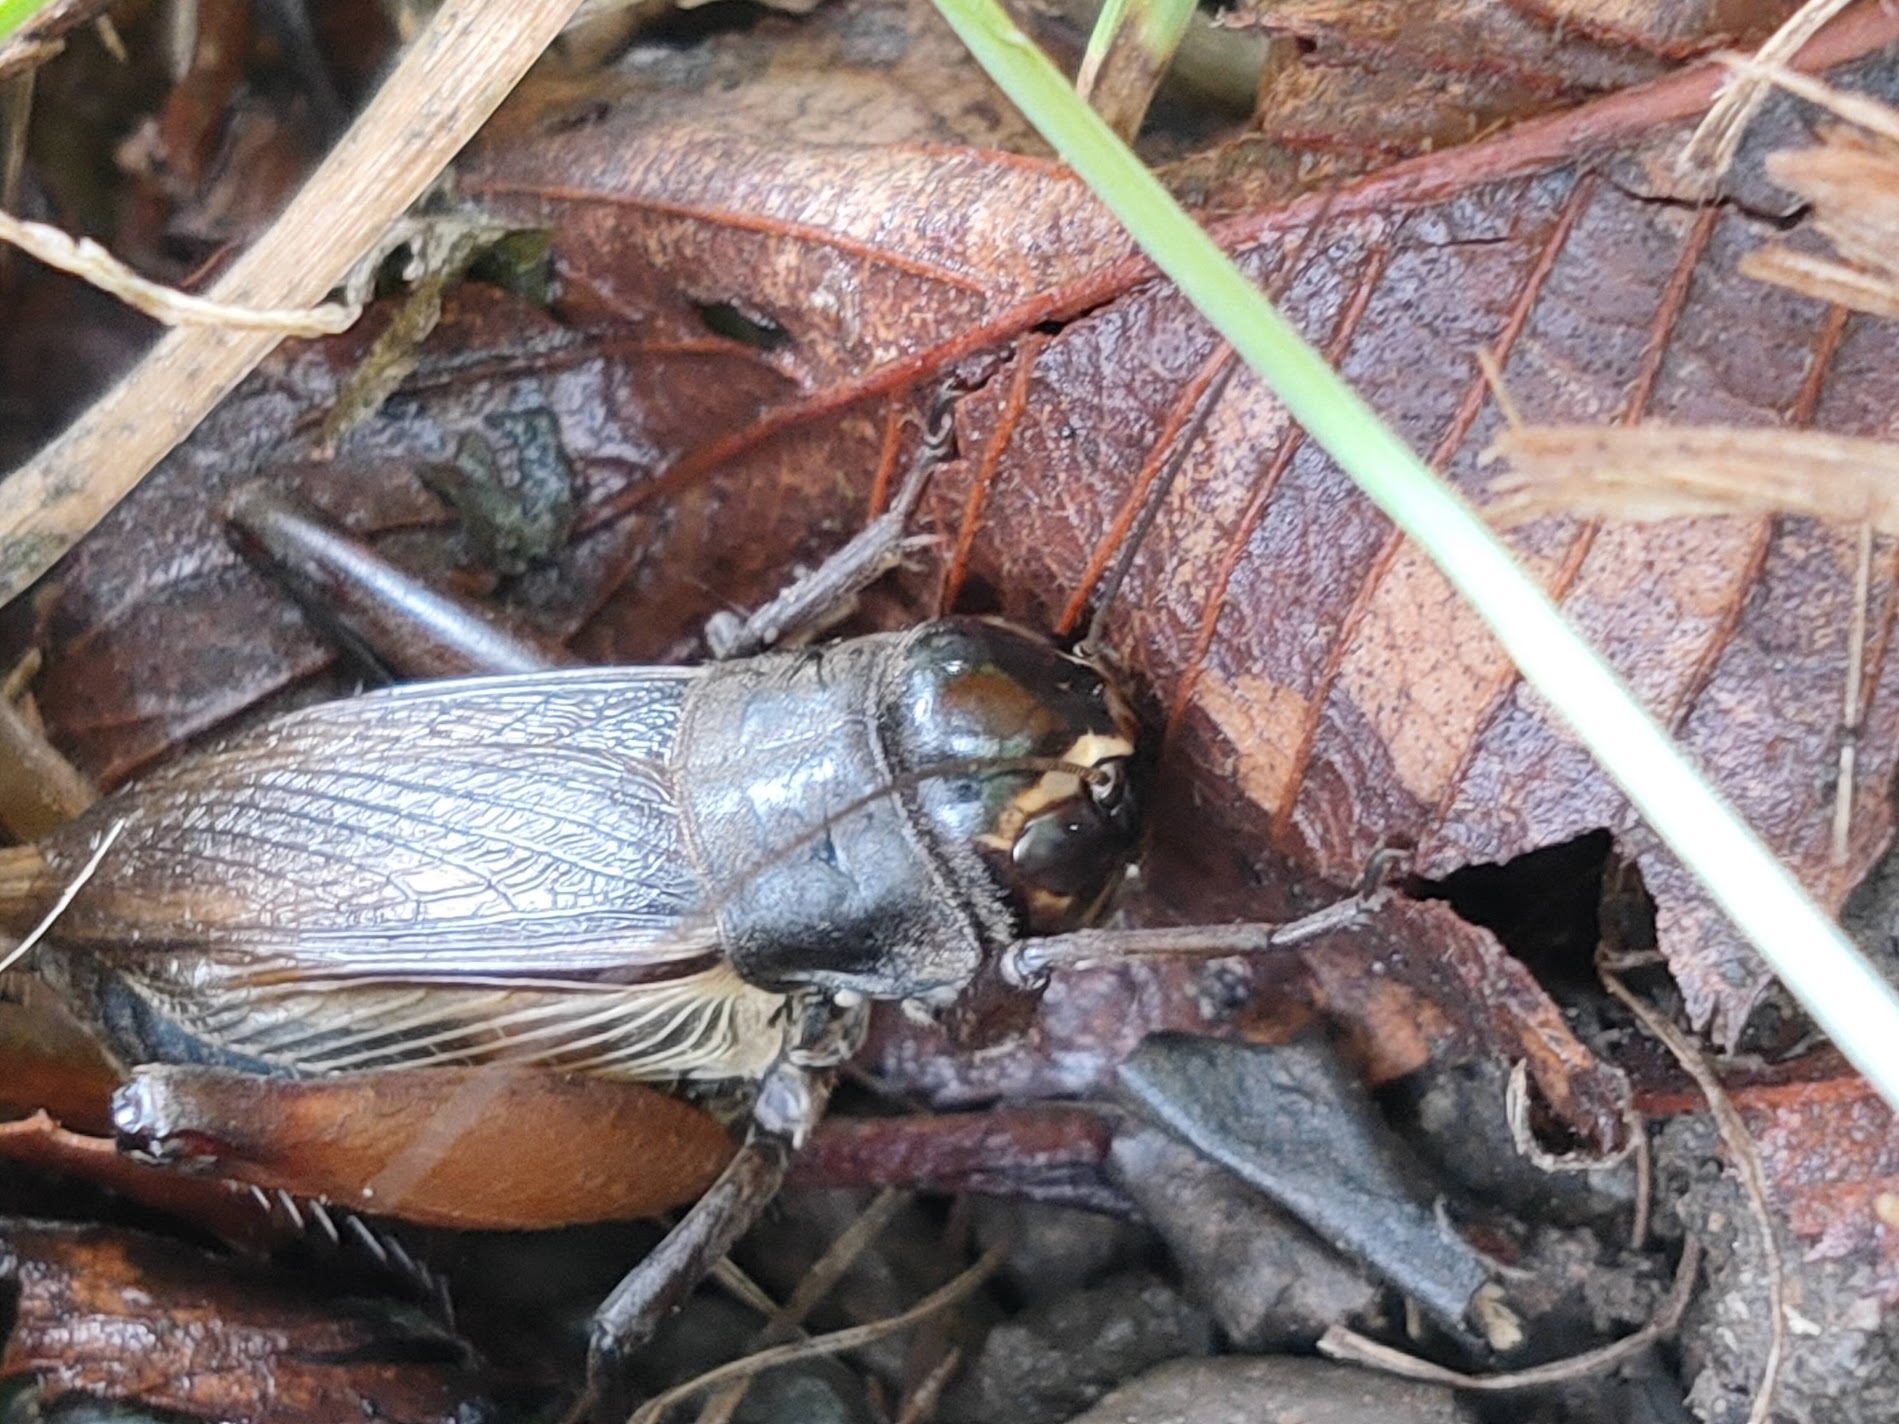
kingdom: Animalia
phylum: Arthropoda
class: Insecta
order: Orthoptera
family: Gryllidae
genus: Teleogryllus
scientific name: Teleogryllus emma
